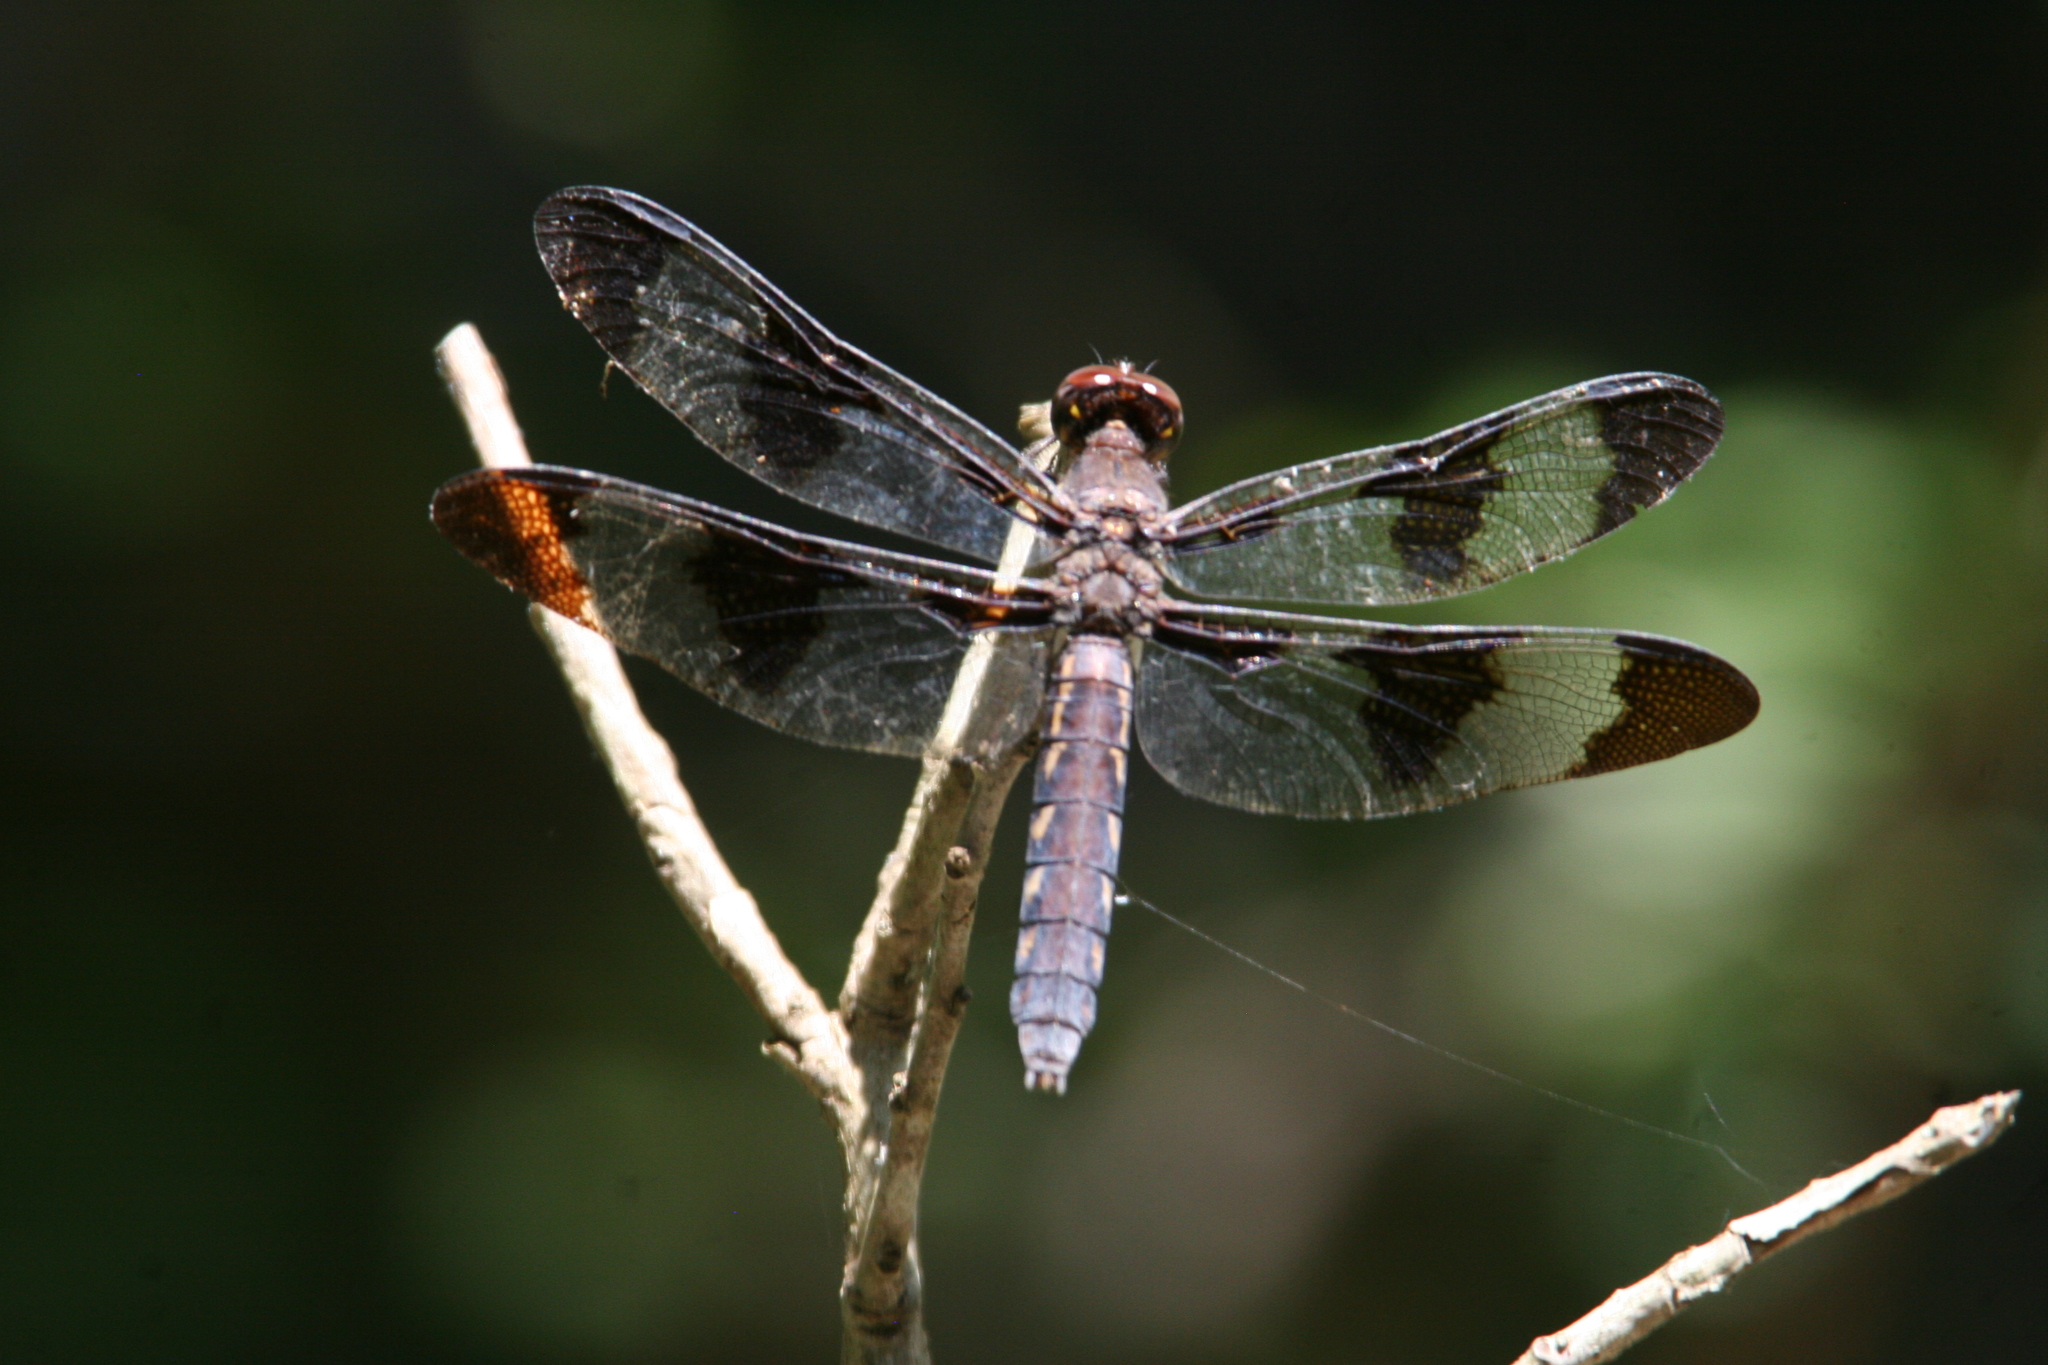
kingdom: Animalia
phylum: Arthropoda
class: Insecta
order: Odonata
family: Libellulidae
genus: Plathemis
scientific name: Plathemis lydia
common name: Common whitetail
